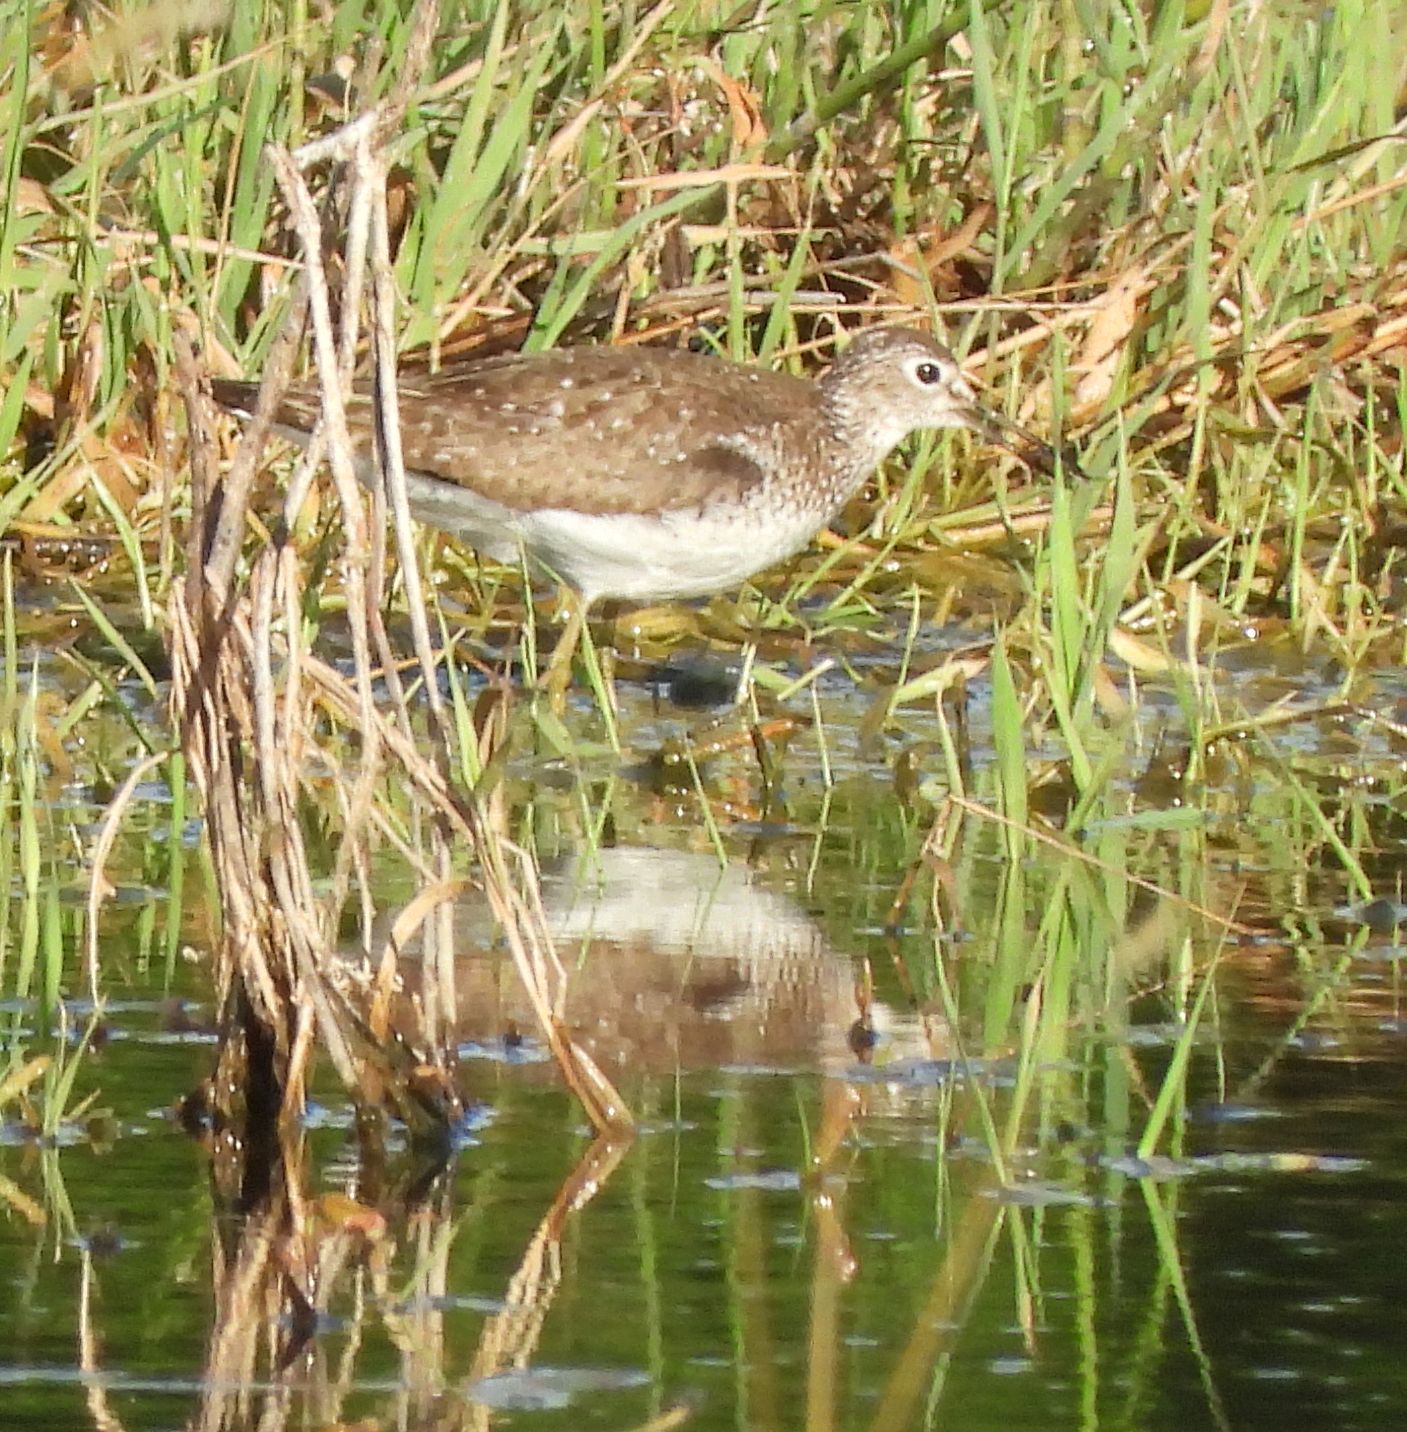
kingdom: Animalia
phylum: Chordata
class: Aves
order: Charadriiformes
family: Scolopacidae
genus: Tringa
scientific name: Tringa solitaria
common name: Solitary sandpiper
